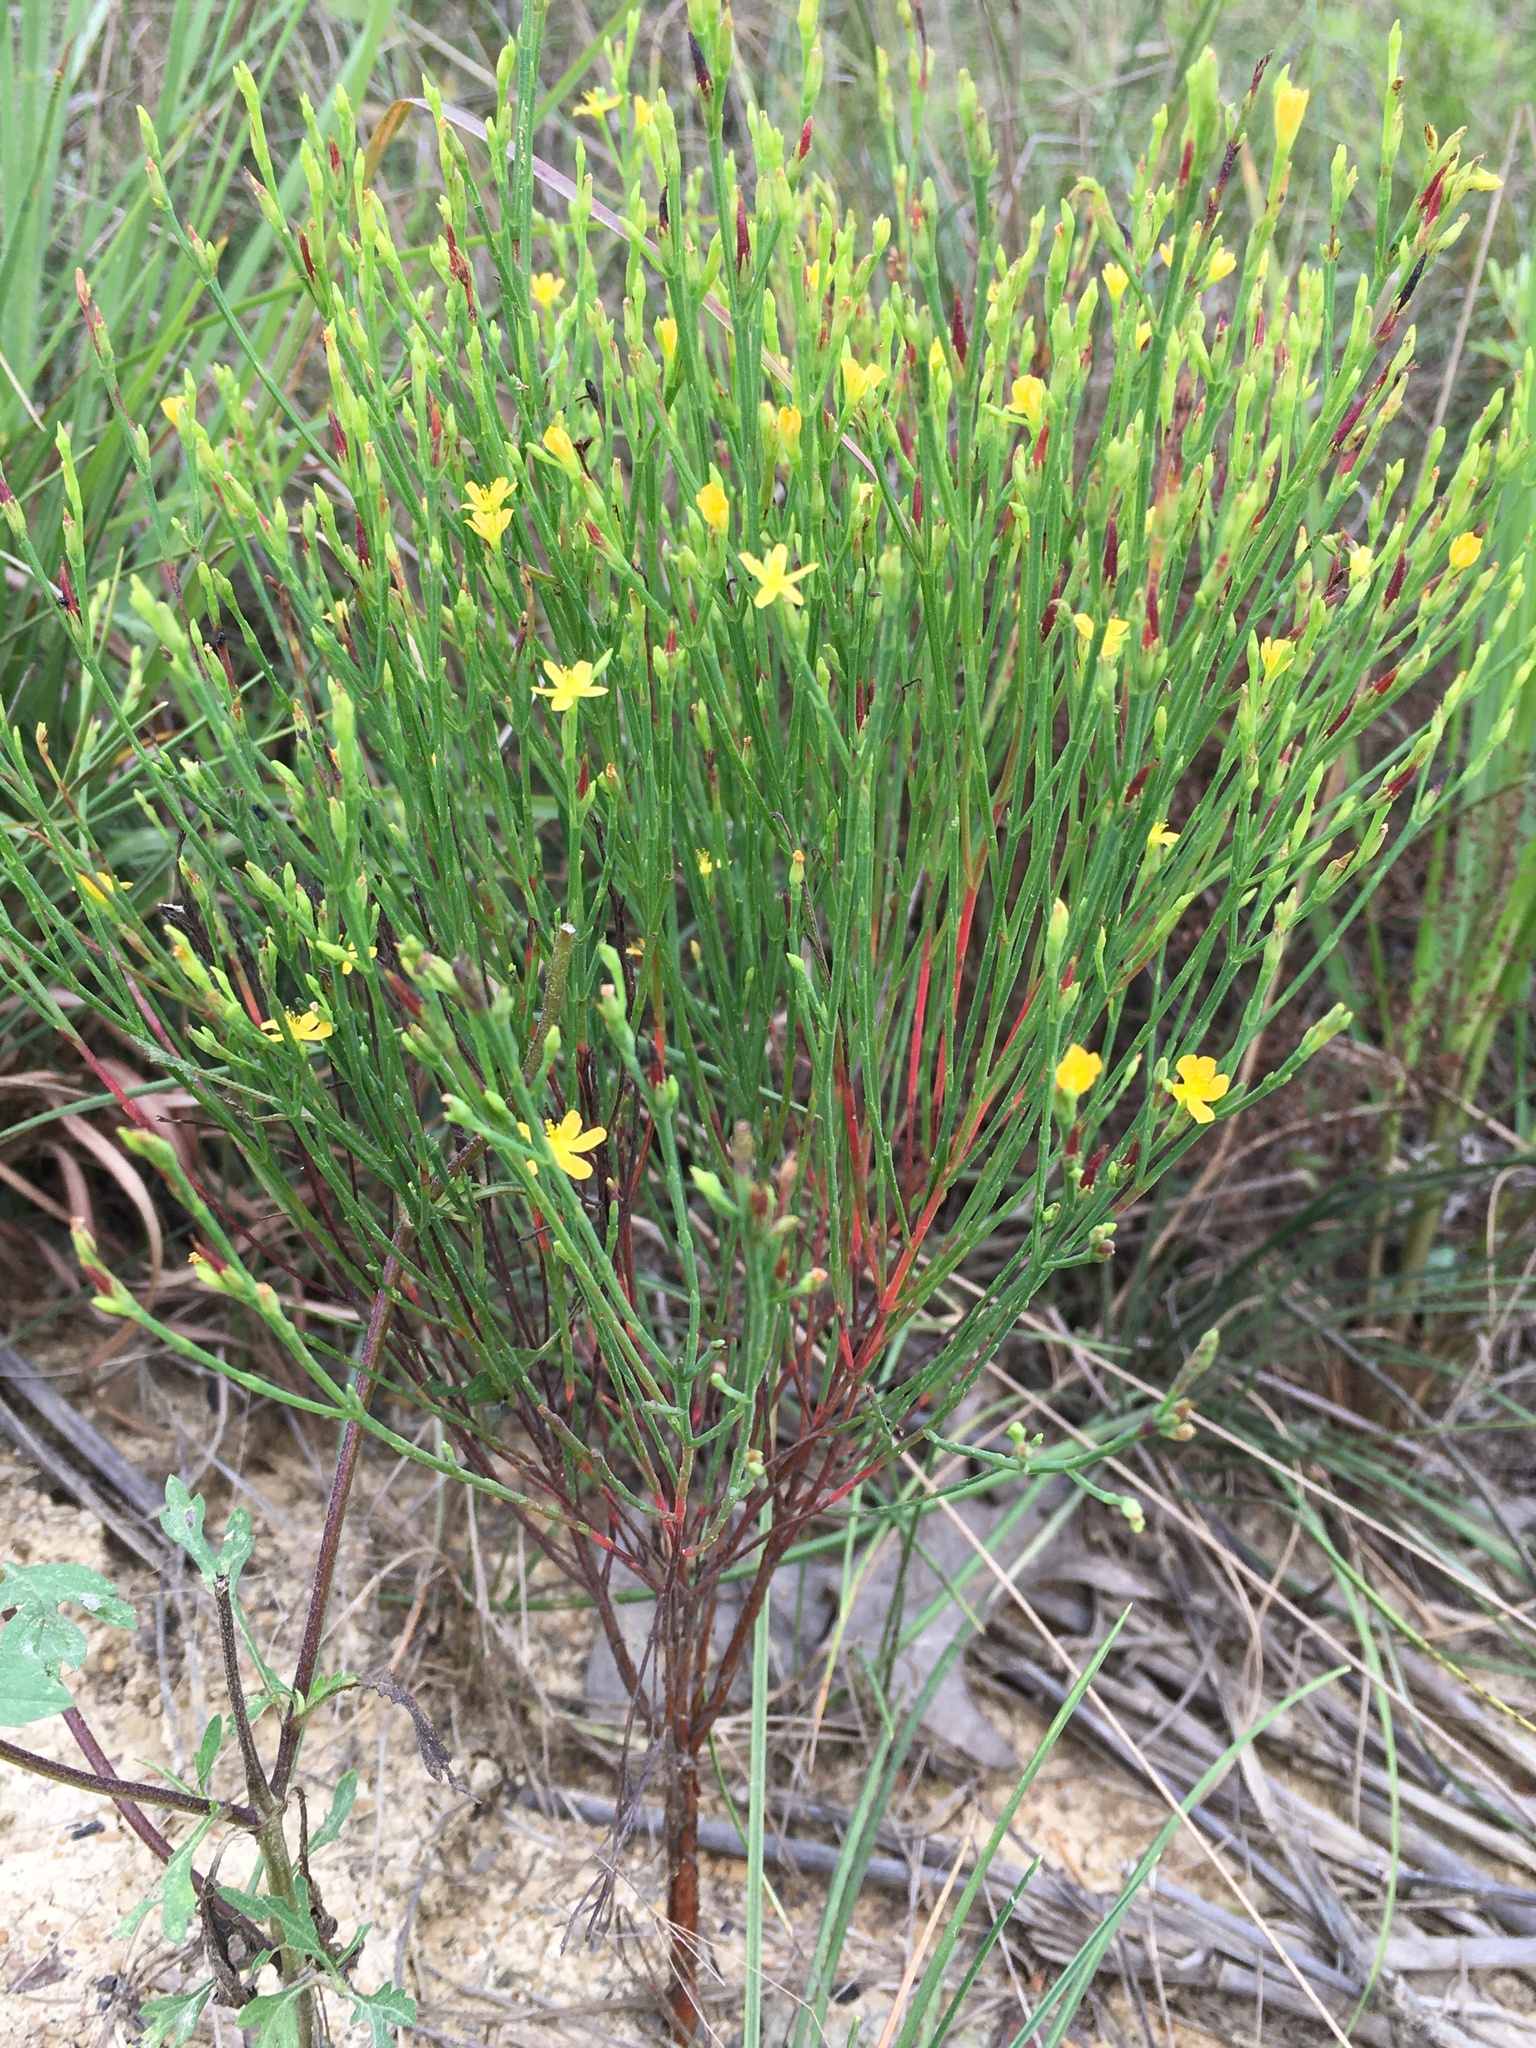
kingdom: Plantae
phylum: Tracheophyta
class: Magnoliopsida
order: Malpighiales
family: Hypericaceae
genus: Hypericum
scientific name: Hypericum gentianoides
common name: Gentian-leaved st. john's-wort
